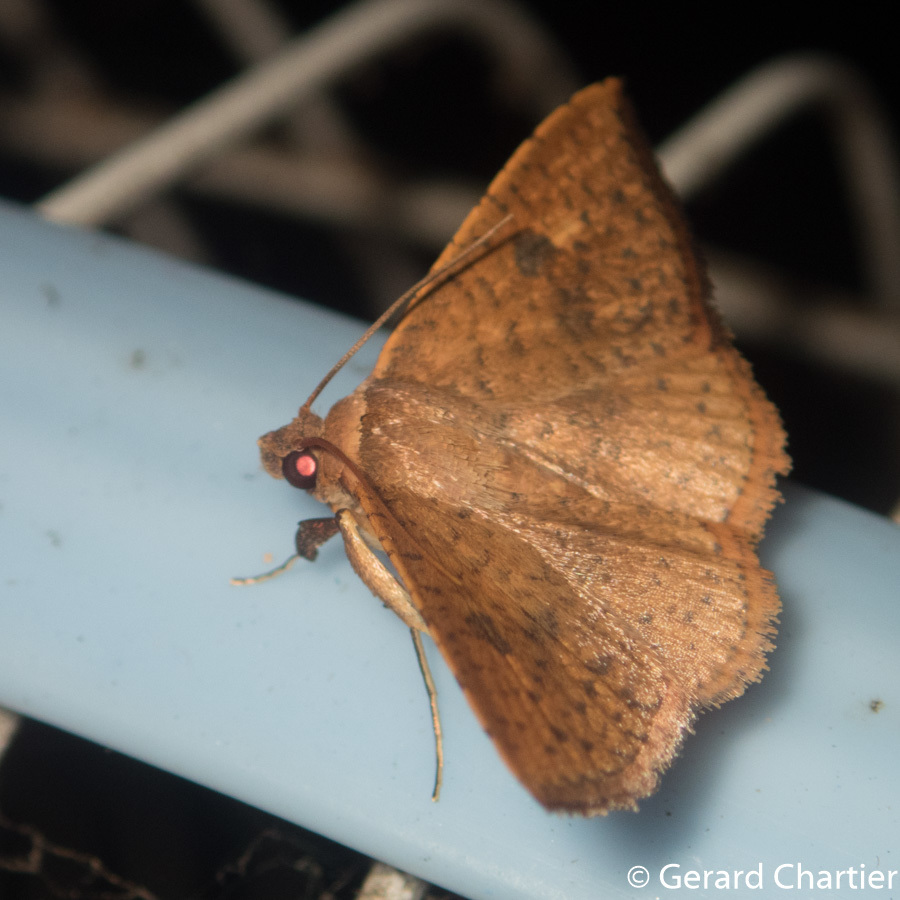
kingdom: Animalia
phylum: Arthropoda
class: Insecta
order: Lepidoptera
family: Thyrididae
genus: Striglina
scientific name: Striglina duplicifimbria
